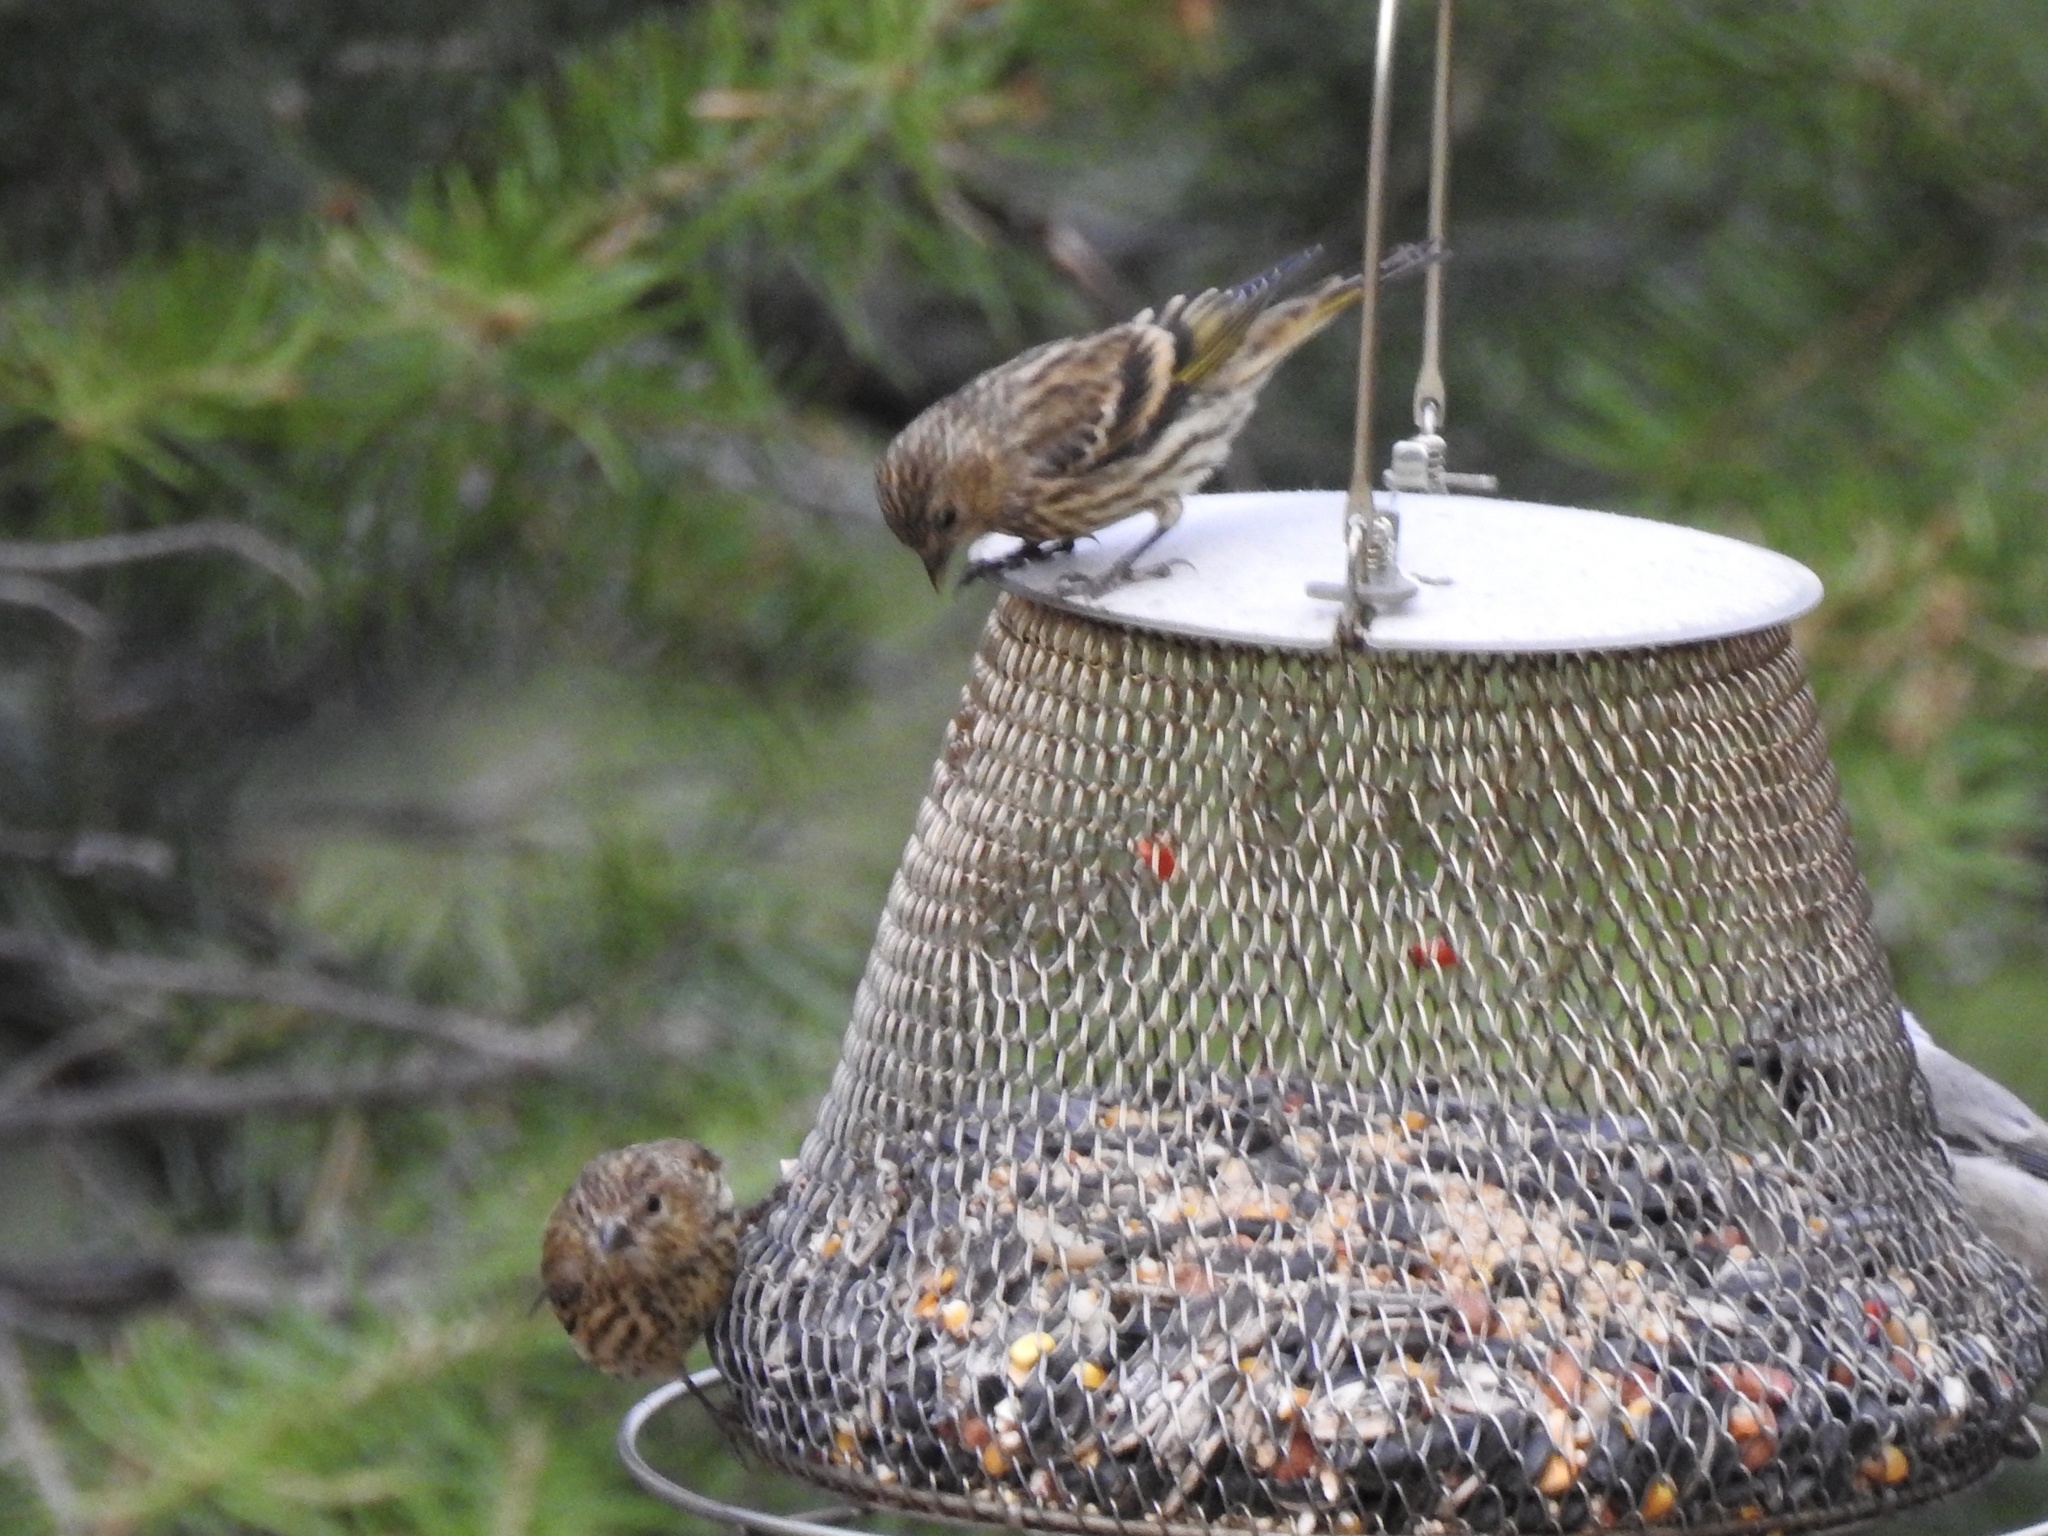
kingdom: Animalia
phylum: Chordata
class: Aves
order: Passeriformes
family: Fringillidae
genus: Spinus
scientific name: Spinus pinus
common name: Pine siskin
